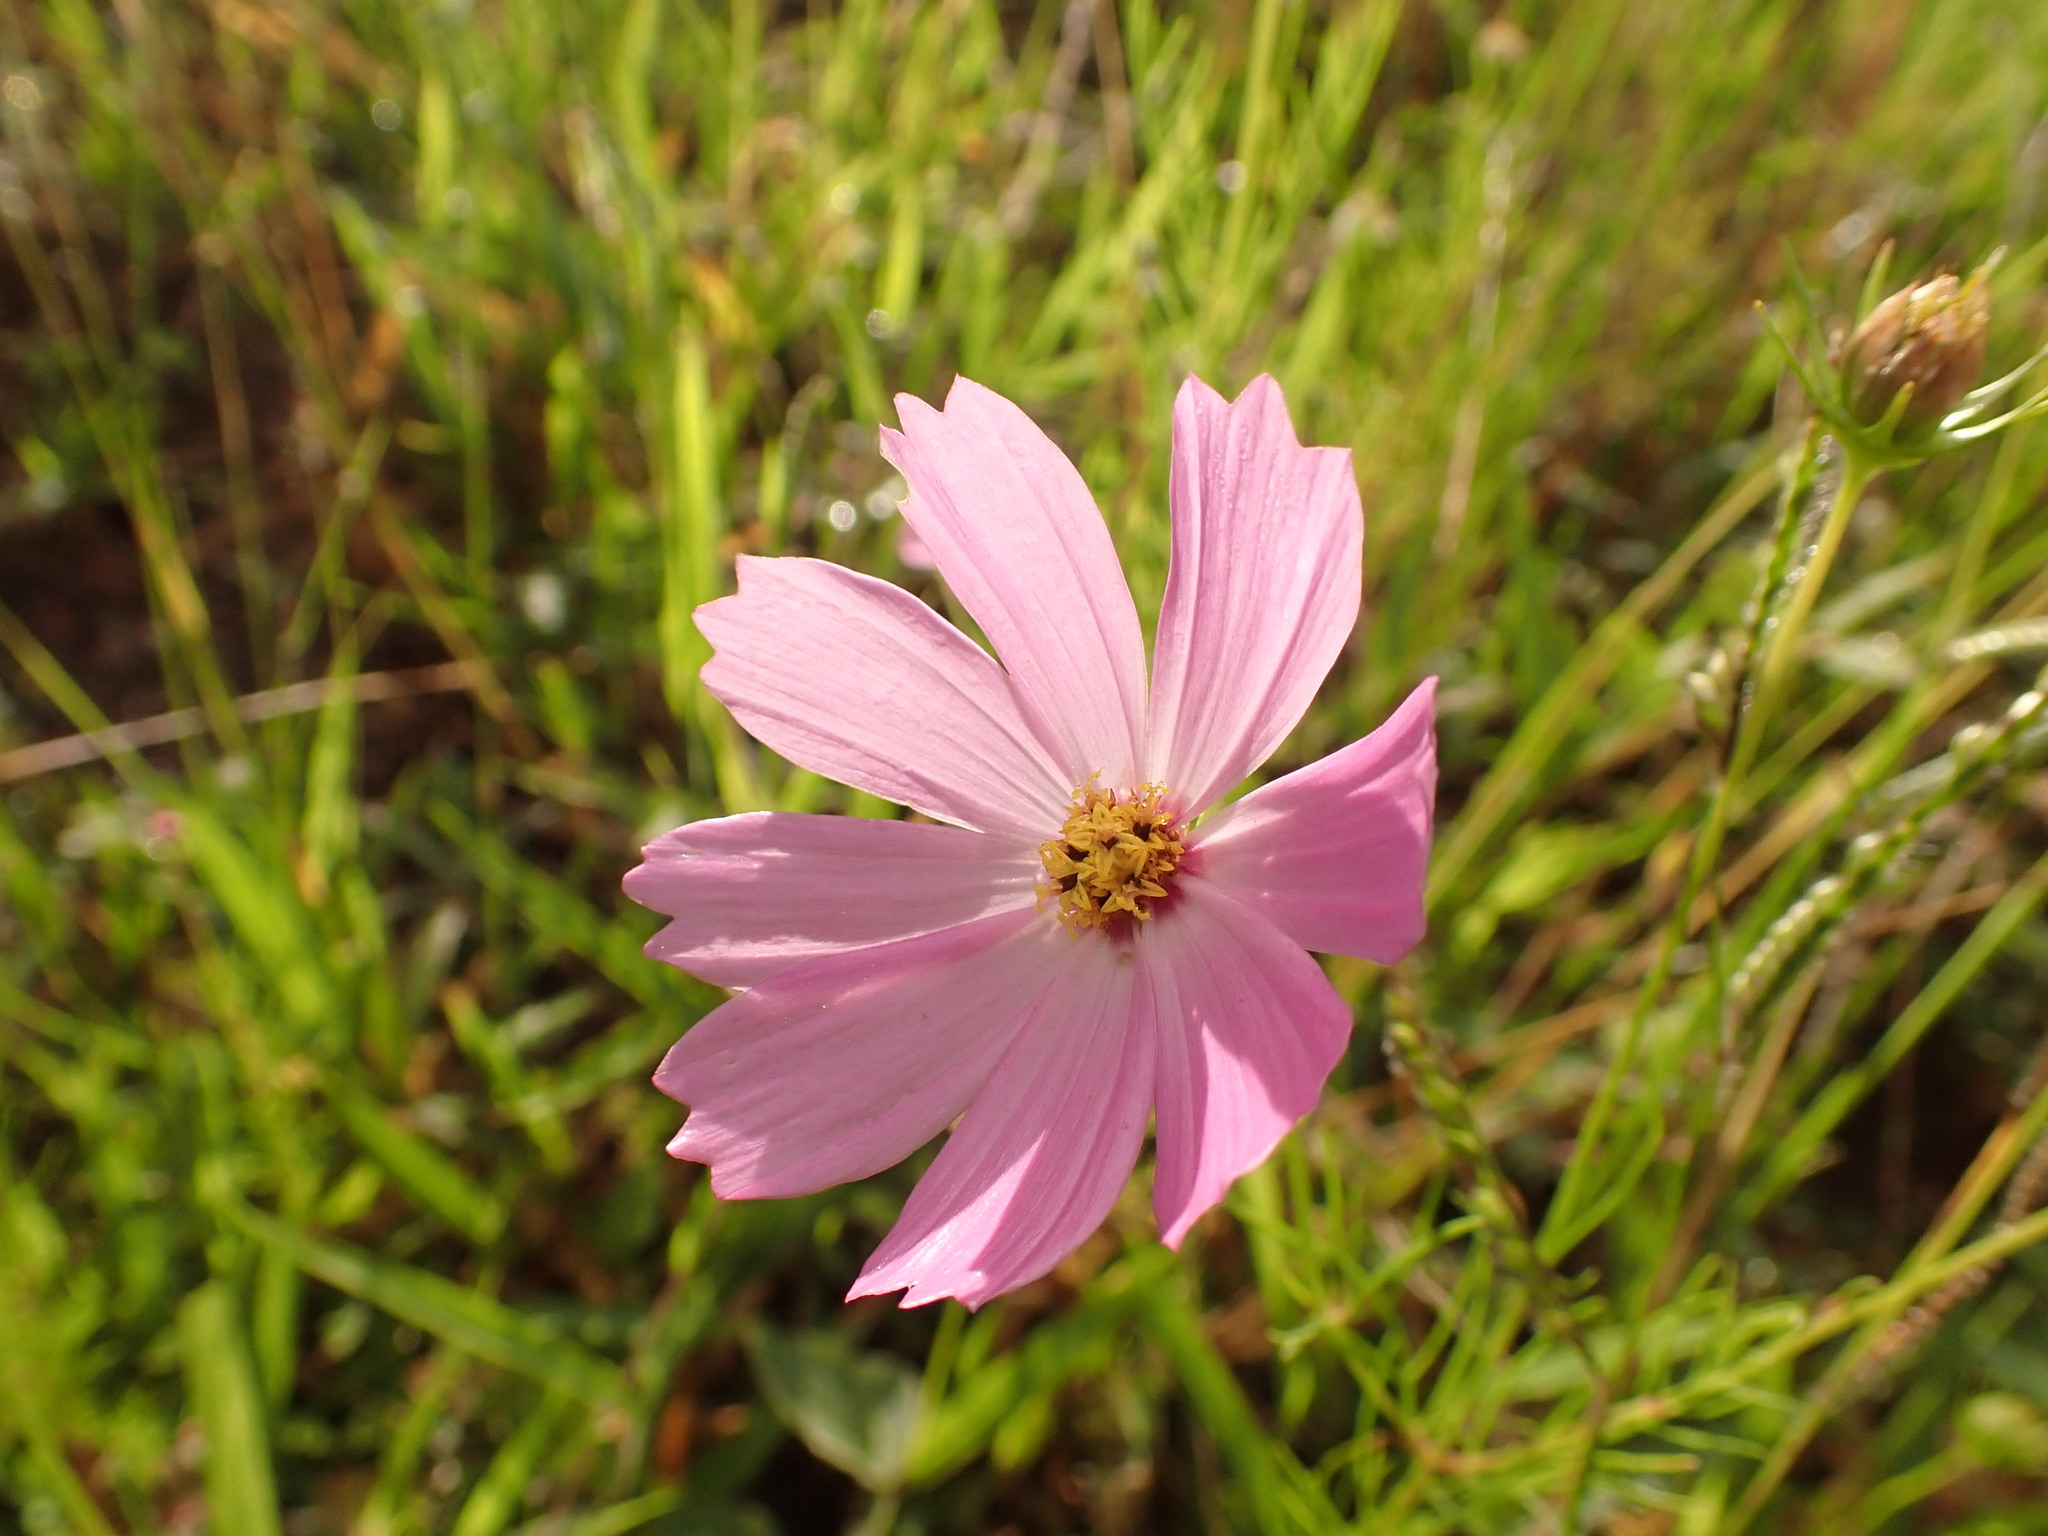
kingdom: Plantae
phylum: Tracheophyta
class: Magnoliopsida
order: Asterales
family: Asteraceae
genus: Cosmos
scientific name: Cosmos bipinnatus
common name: Garden cosmos
